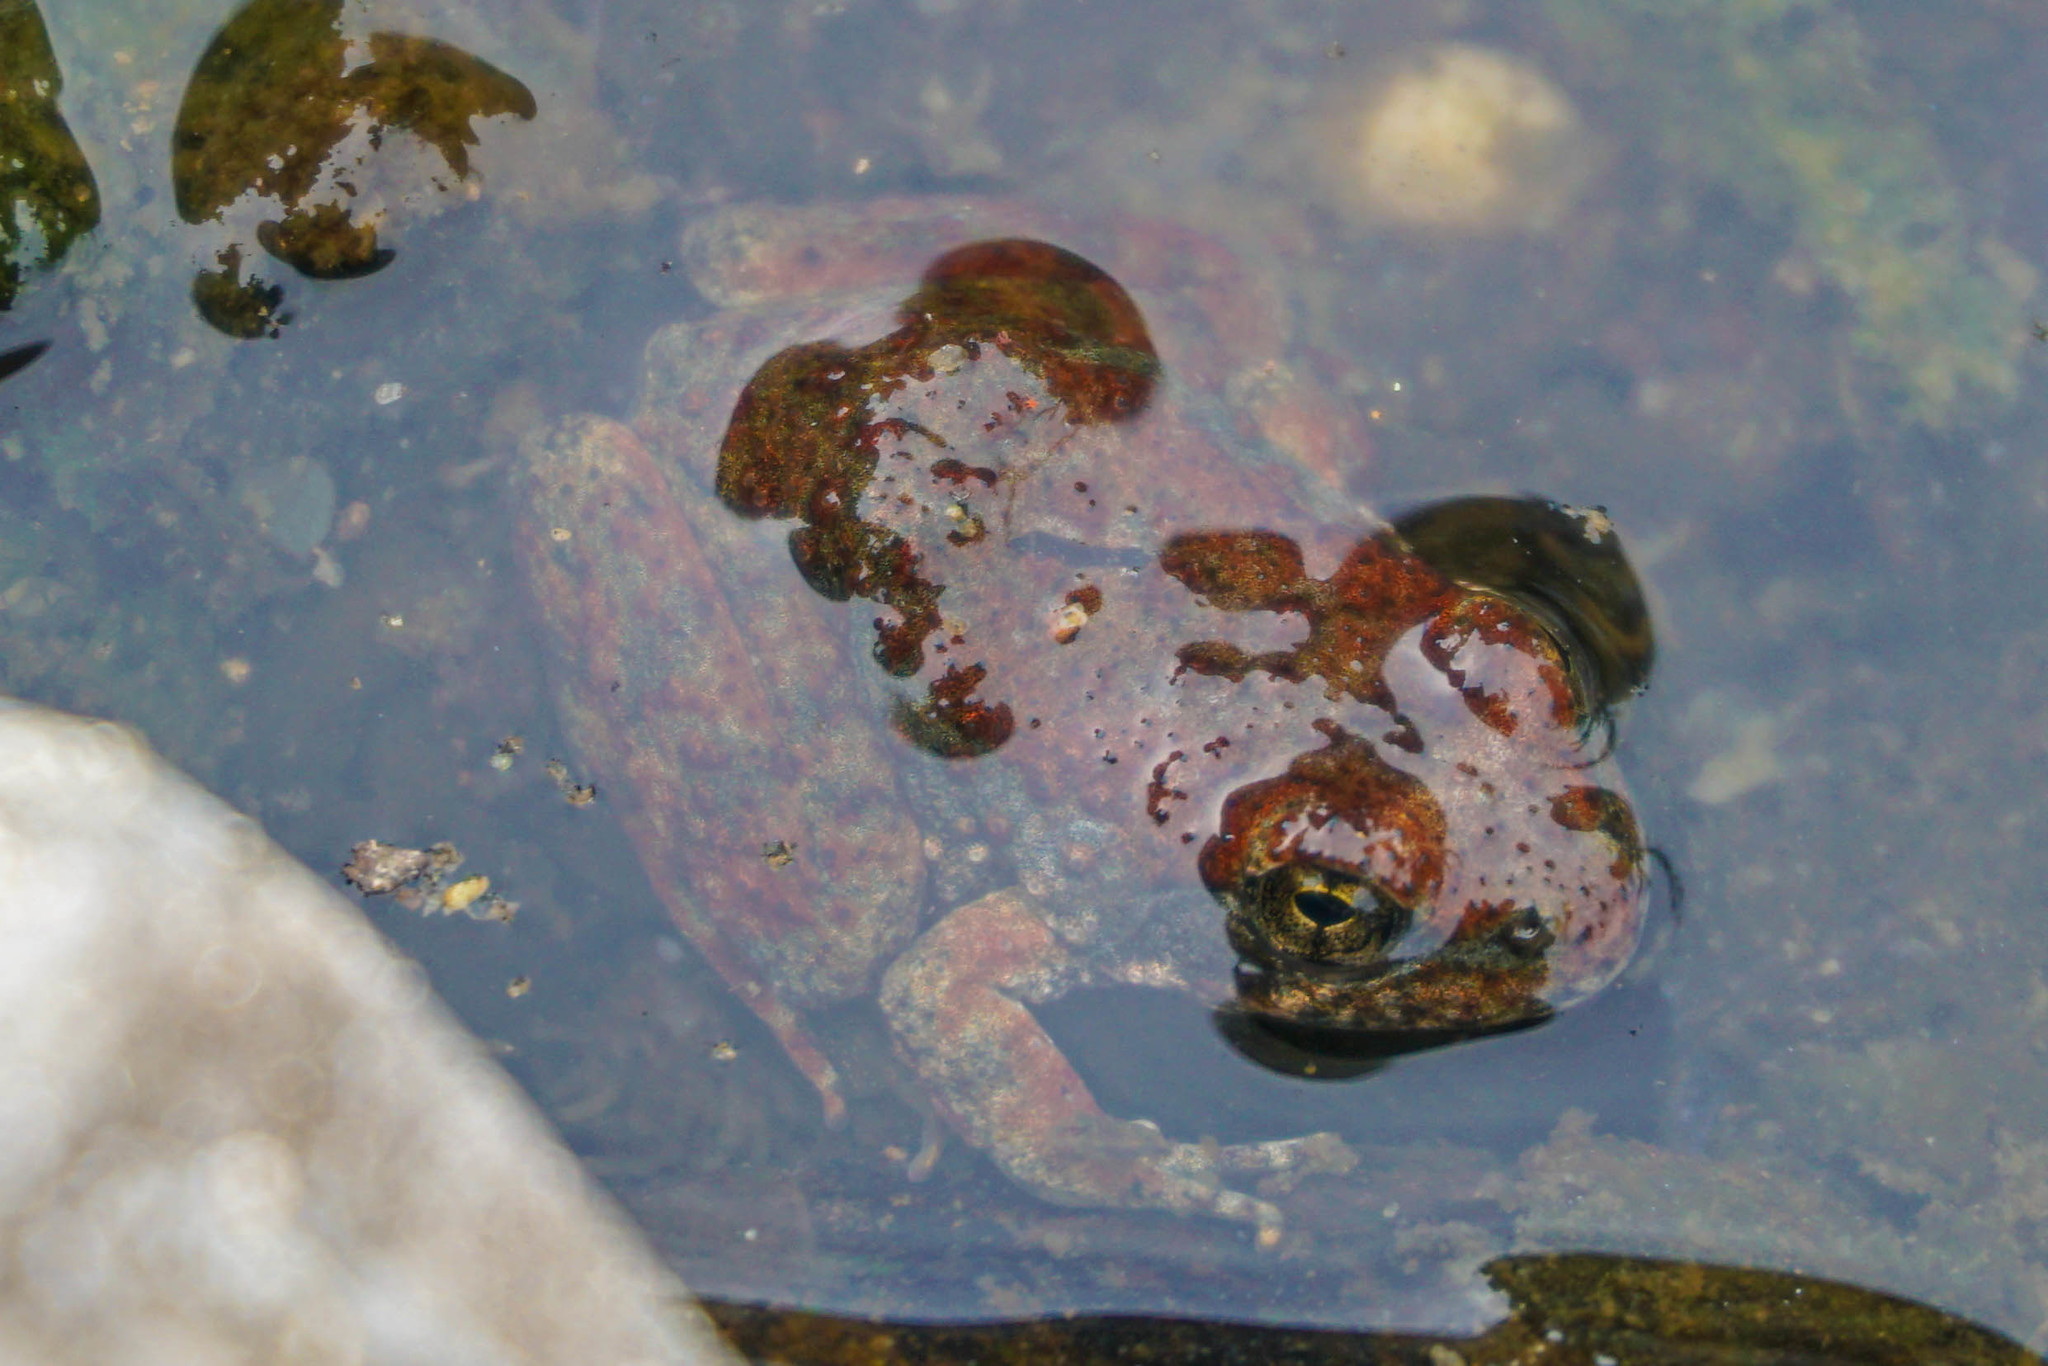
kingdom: Animalia
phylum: Chordata
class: Amphibia
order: Anura
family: Ranidae
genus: Rana
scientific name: Rana boylii
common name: Foothill yellow-legged frog
